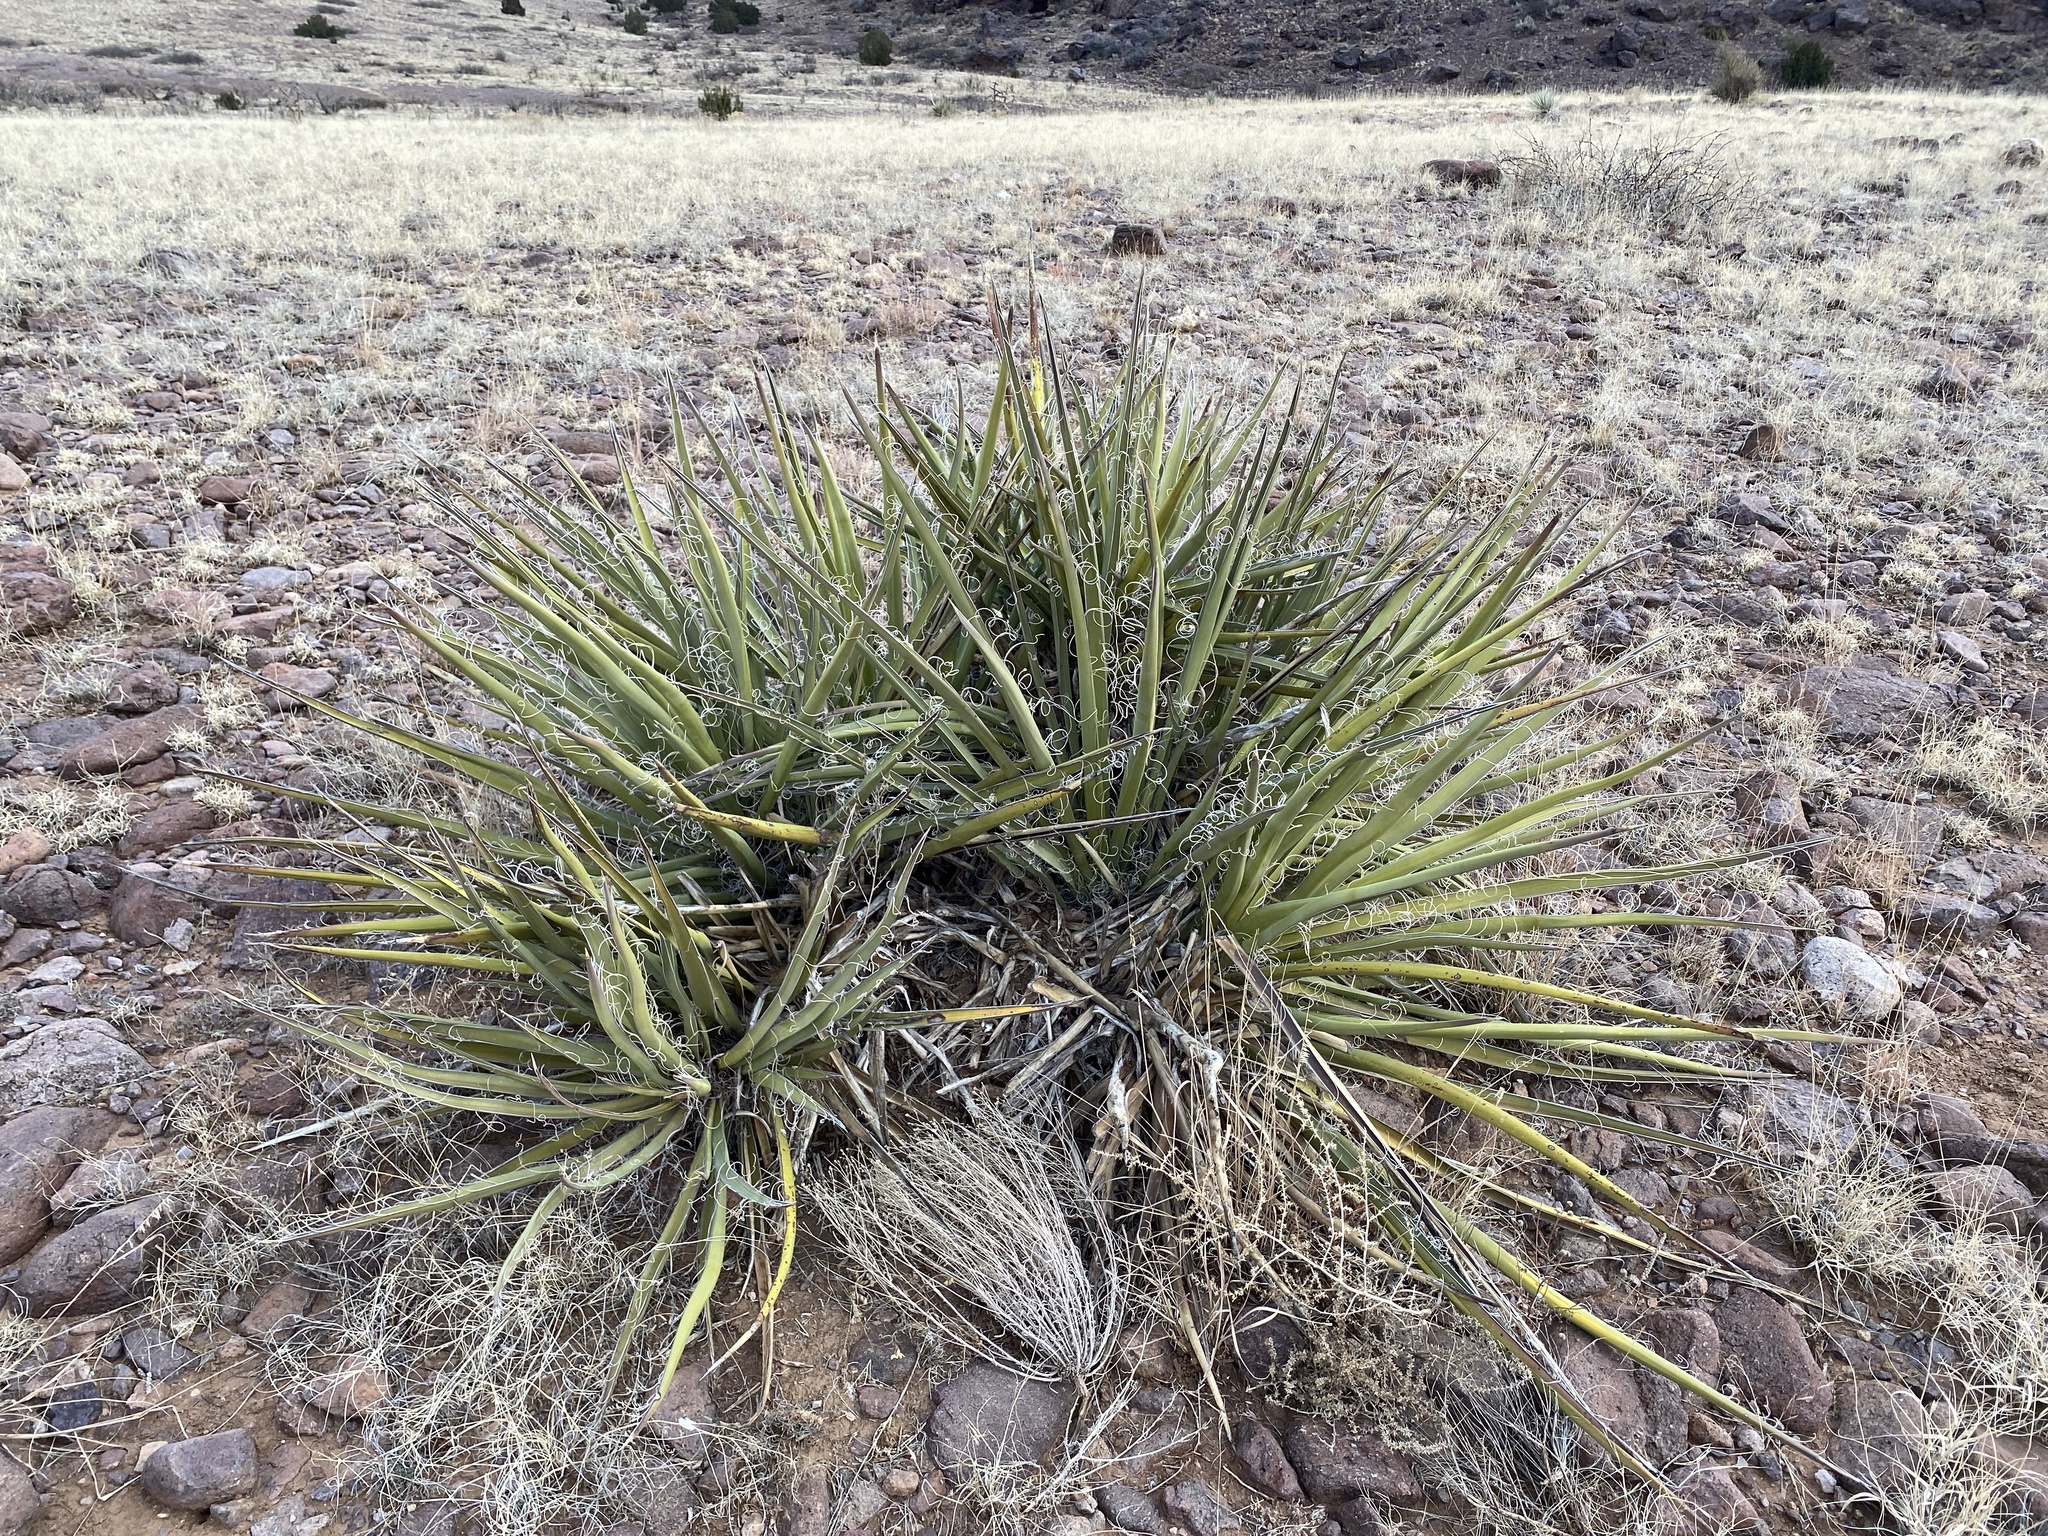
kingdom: Plantae
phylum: Tracheophyta
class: Liliopsida
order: Asparagales
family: Asparagaceae
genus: Yucca
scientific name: Yucca baccata
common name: Banana yucca
